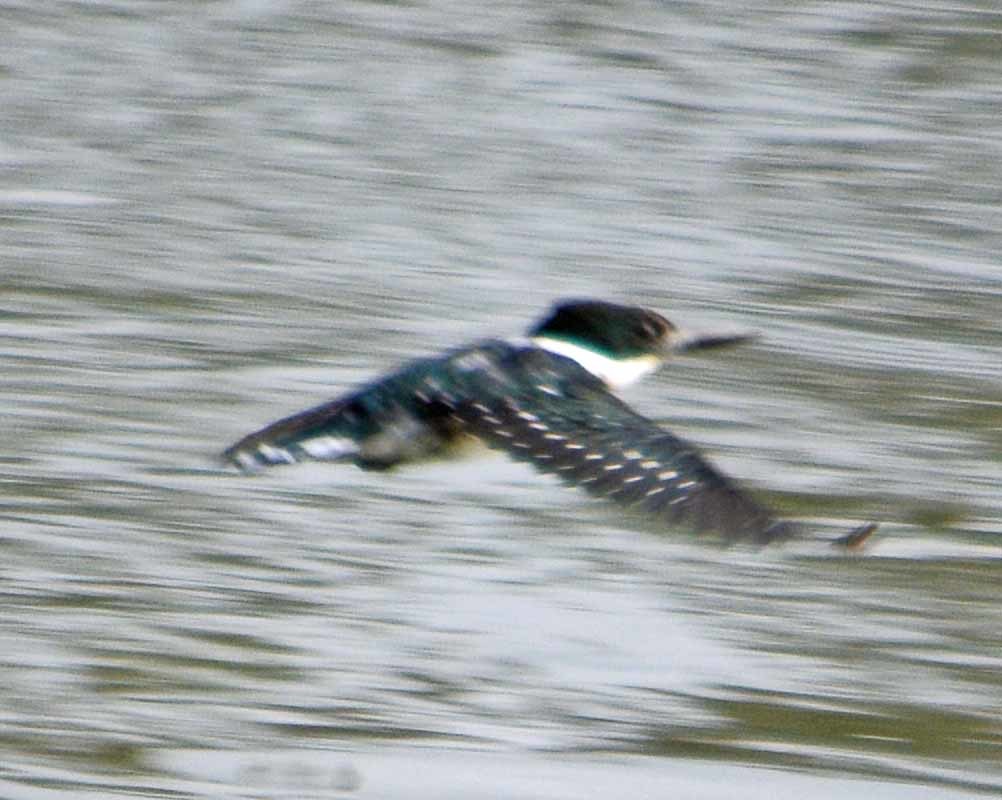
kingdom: Animalia
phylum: Chordata
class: Aves
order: Coraciiformes
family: Alcedinidae
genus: Chloroceryle
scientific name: Chloroceryle americana
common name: Green kingfisher
